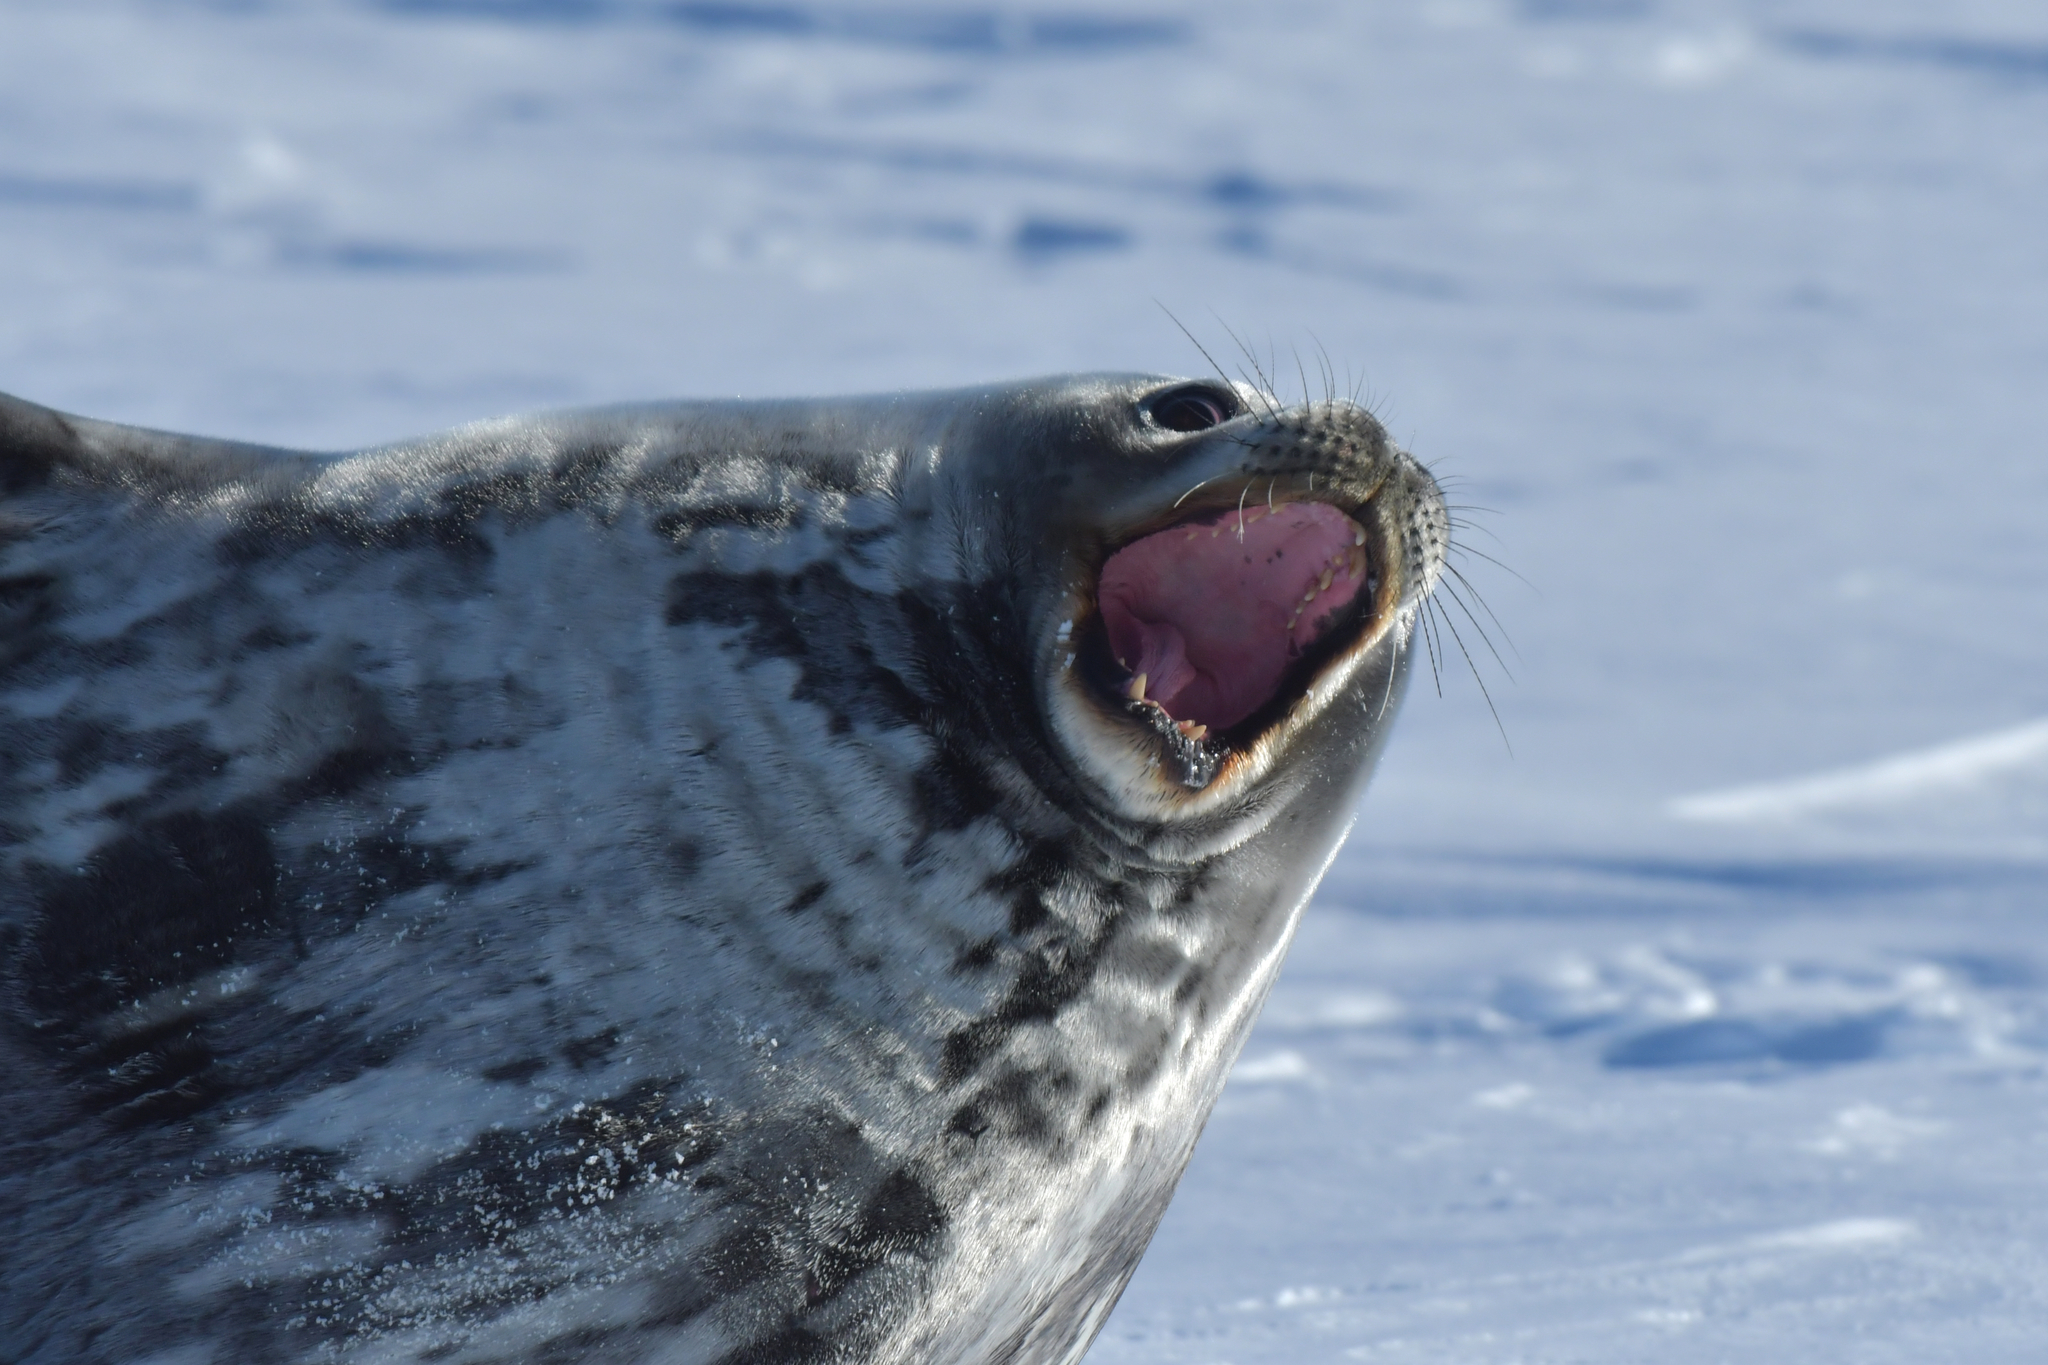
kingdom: Animalia
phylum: Chordata
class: Mammalia
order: Carnivora
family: Phocidae
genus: Leptonychotes
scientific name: Leptonychotes weddellii
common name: Weddell seal
